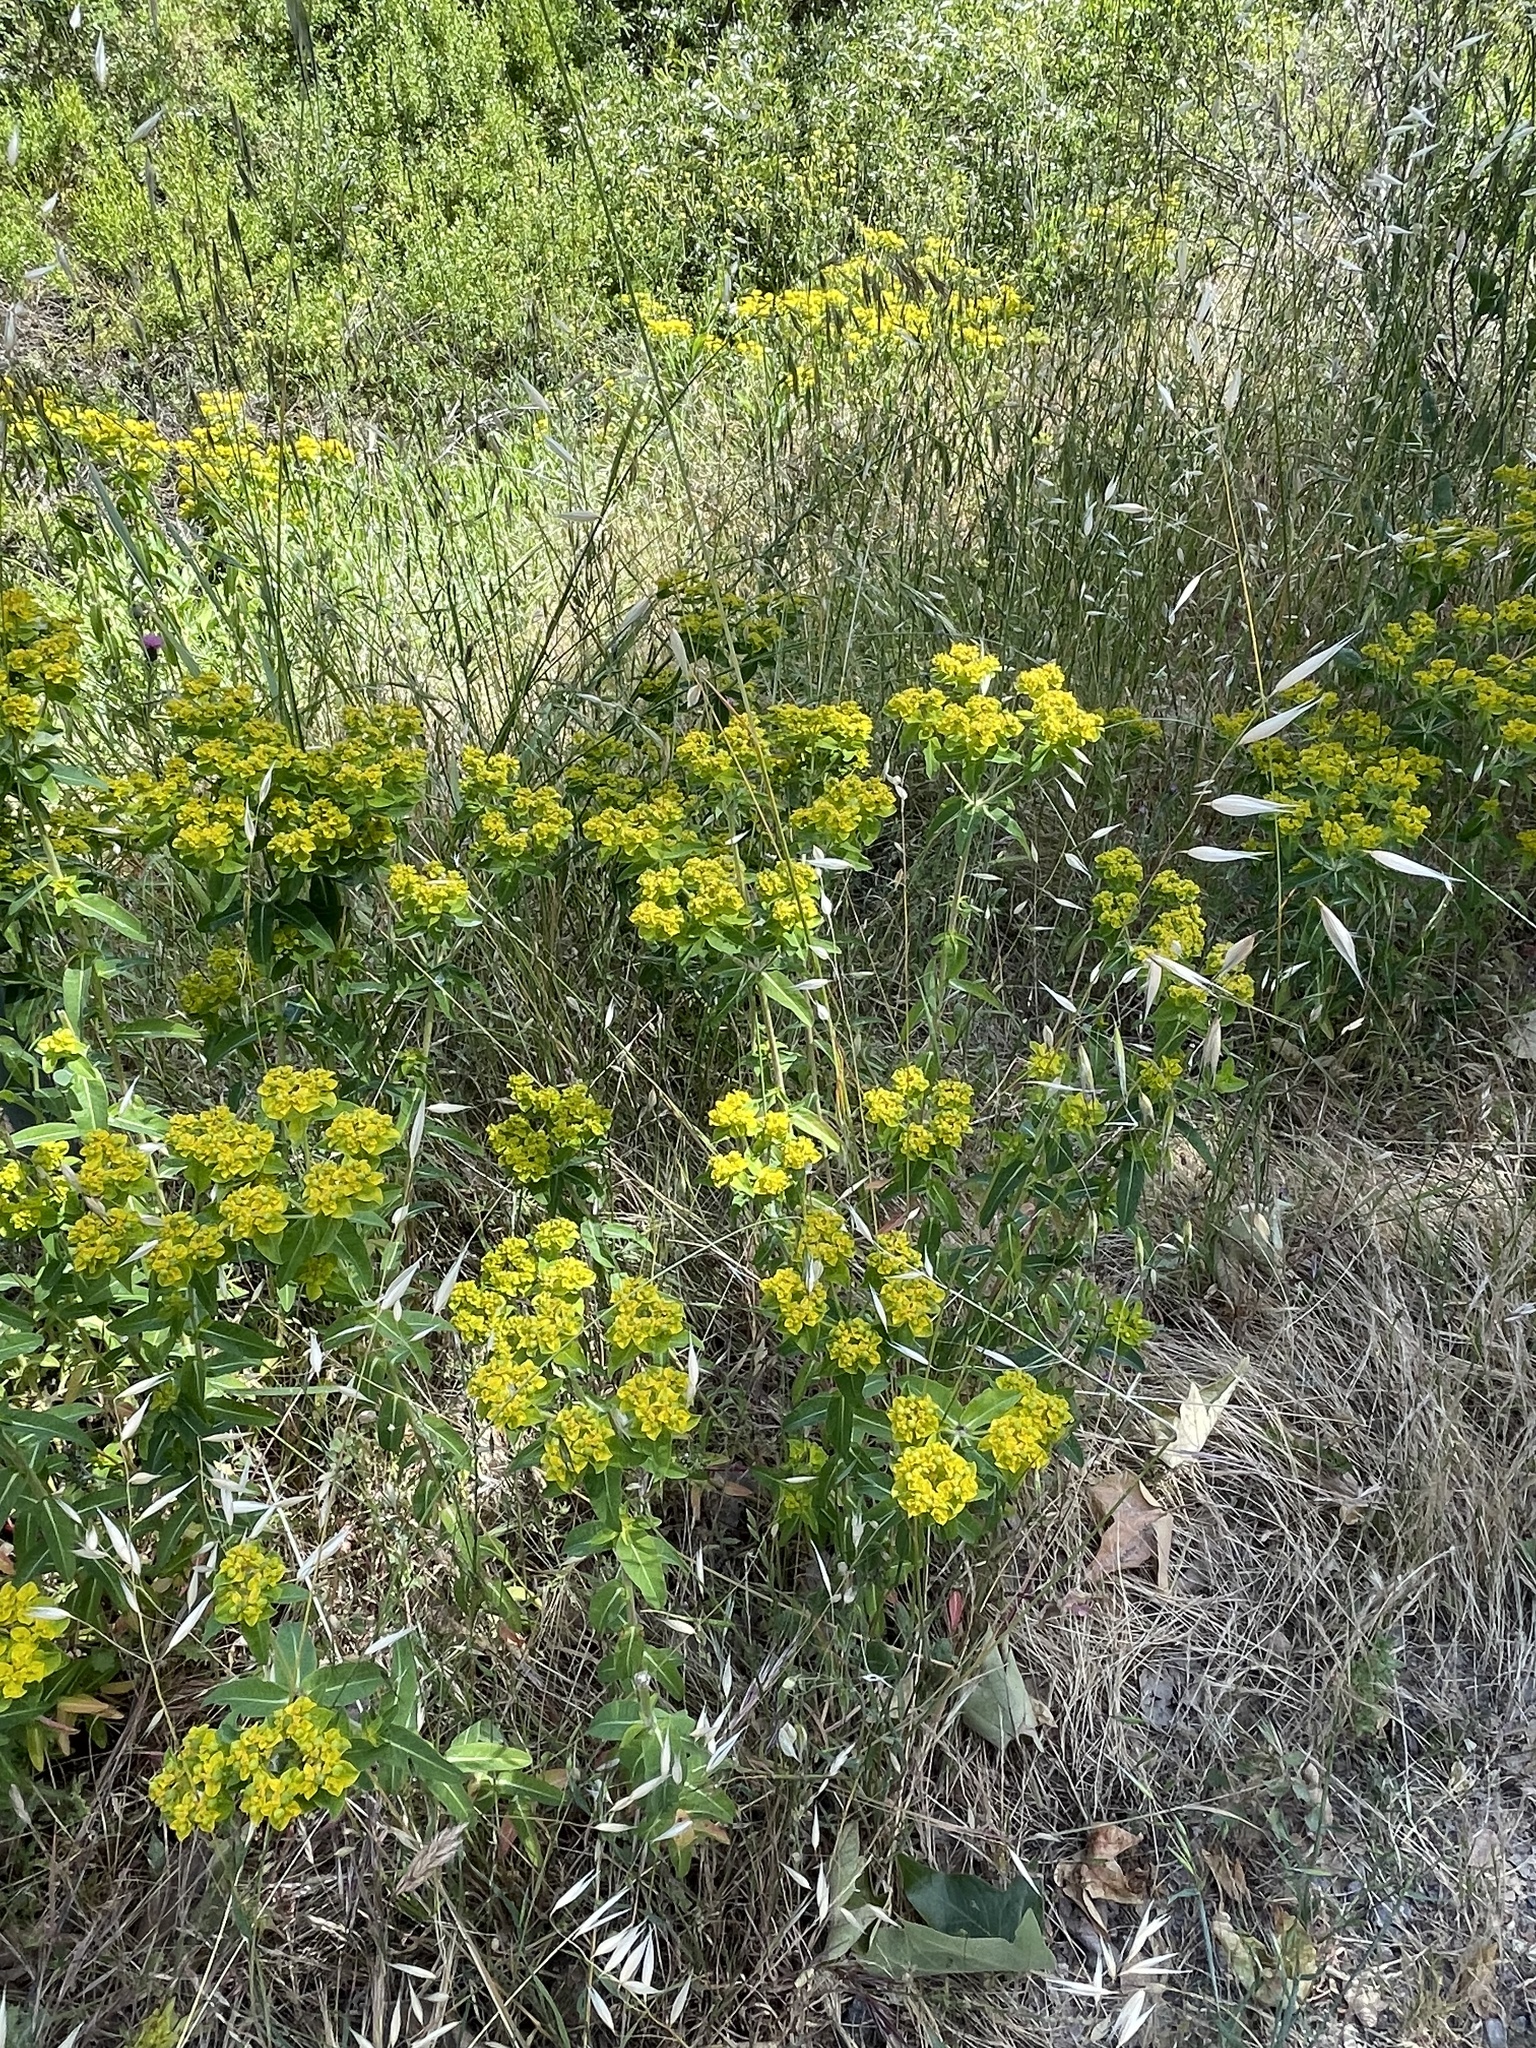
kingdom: Plantae
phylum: Tracheophyta
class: Magnoliopsida
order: Malpighiales
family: Euphorbiaceae
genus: Euphorbia
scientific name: Euphorbia oblongata
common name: Balkan spurge
